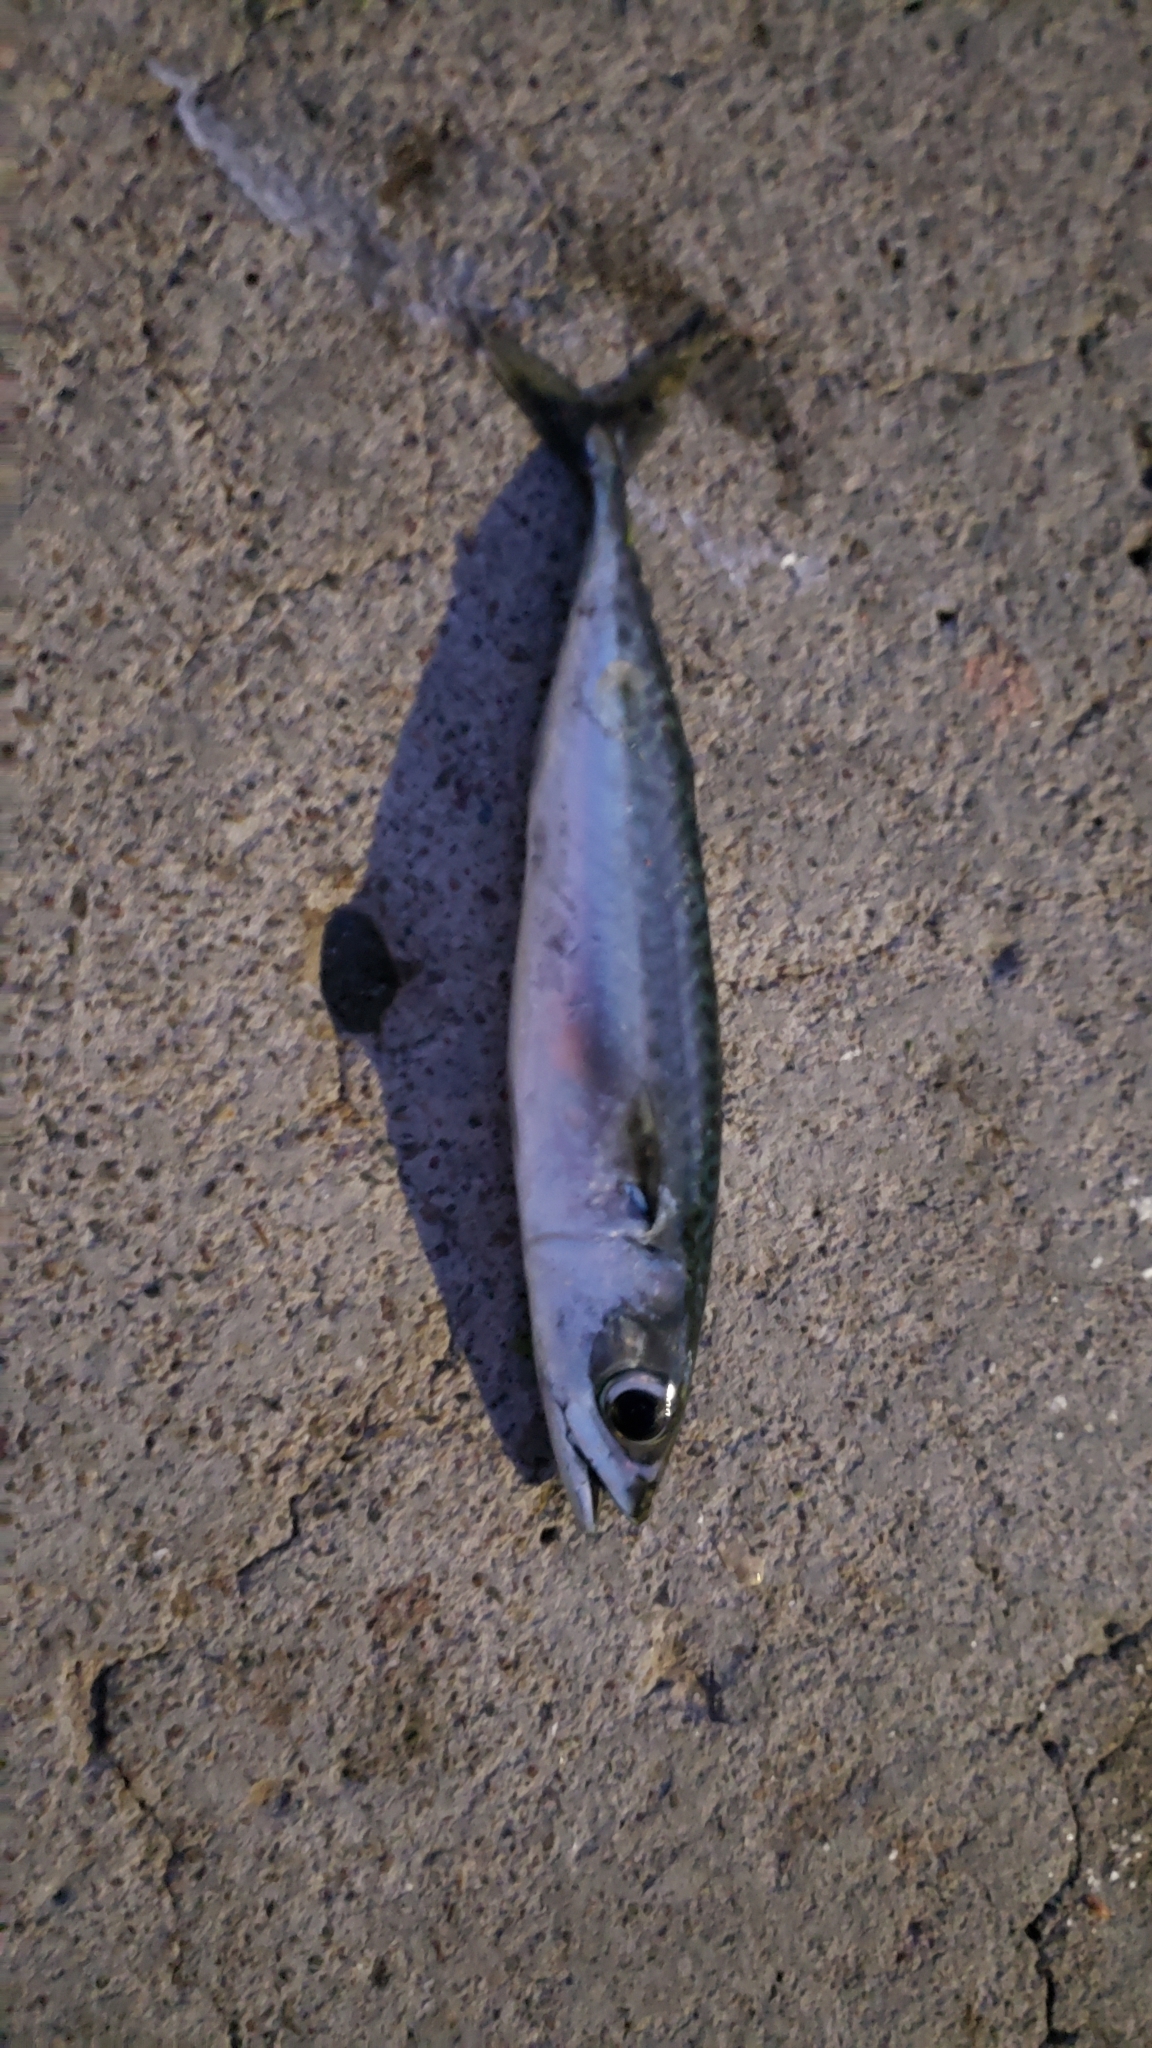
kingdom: Animalia
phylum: Chordata
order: Perciformes
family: Scombridae
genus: Scomber
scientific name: Scomber japonicus
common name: Chub mackerel
